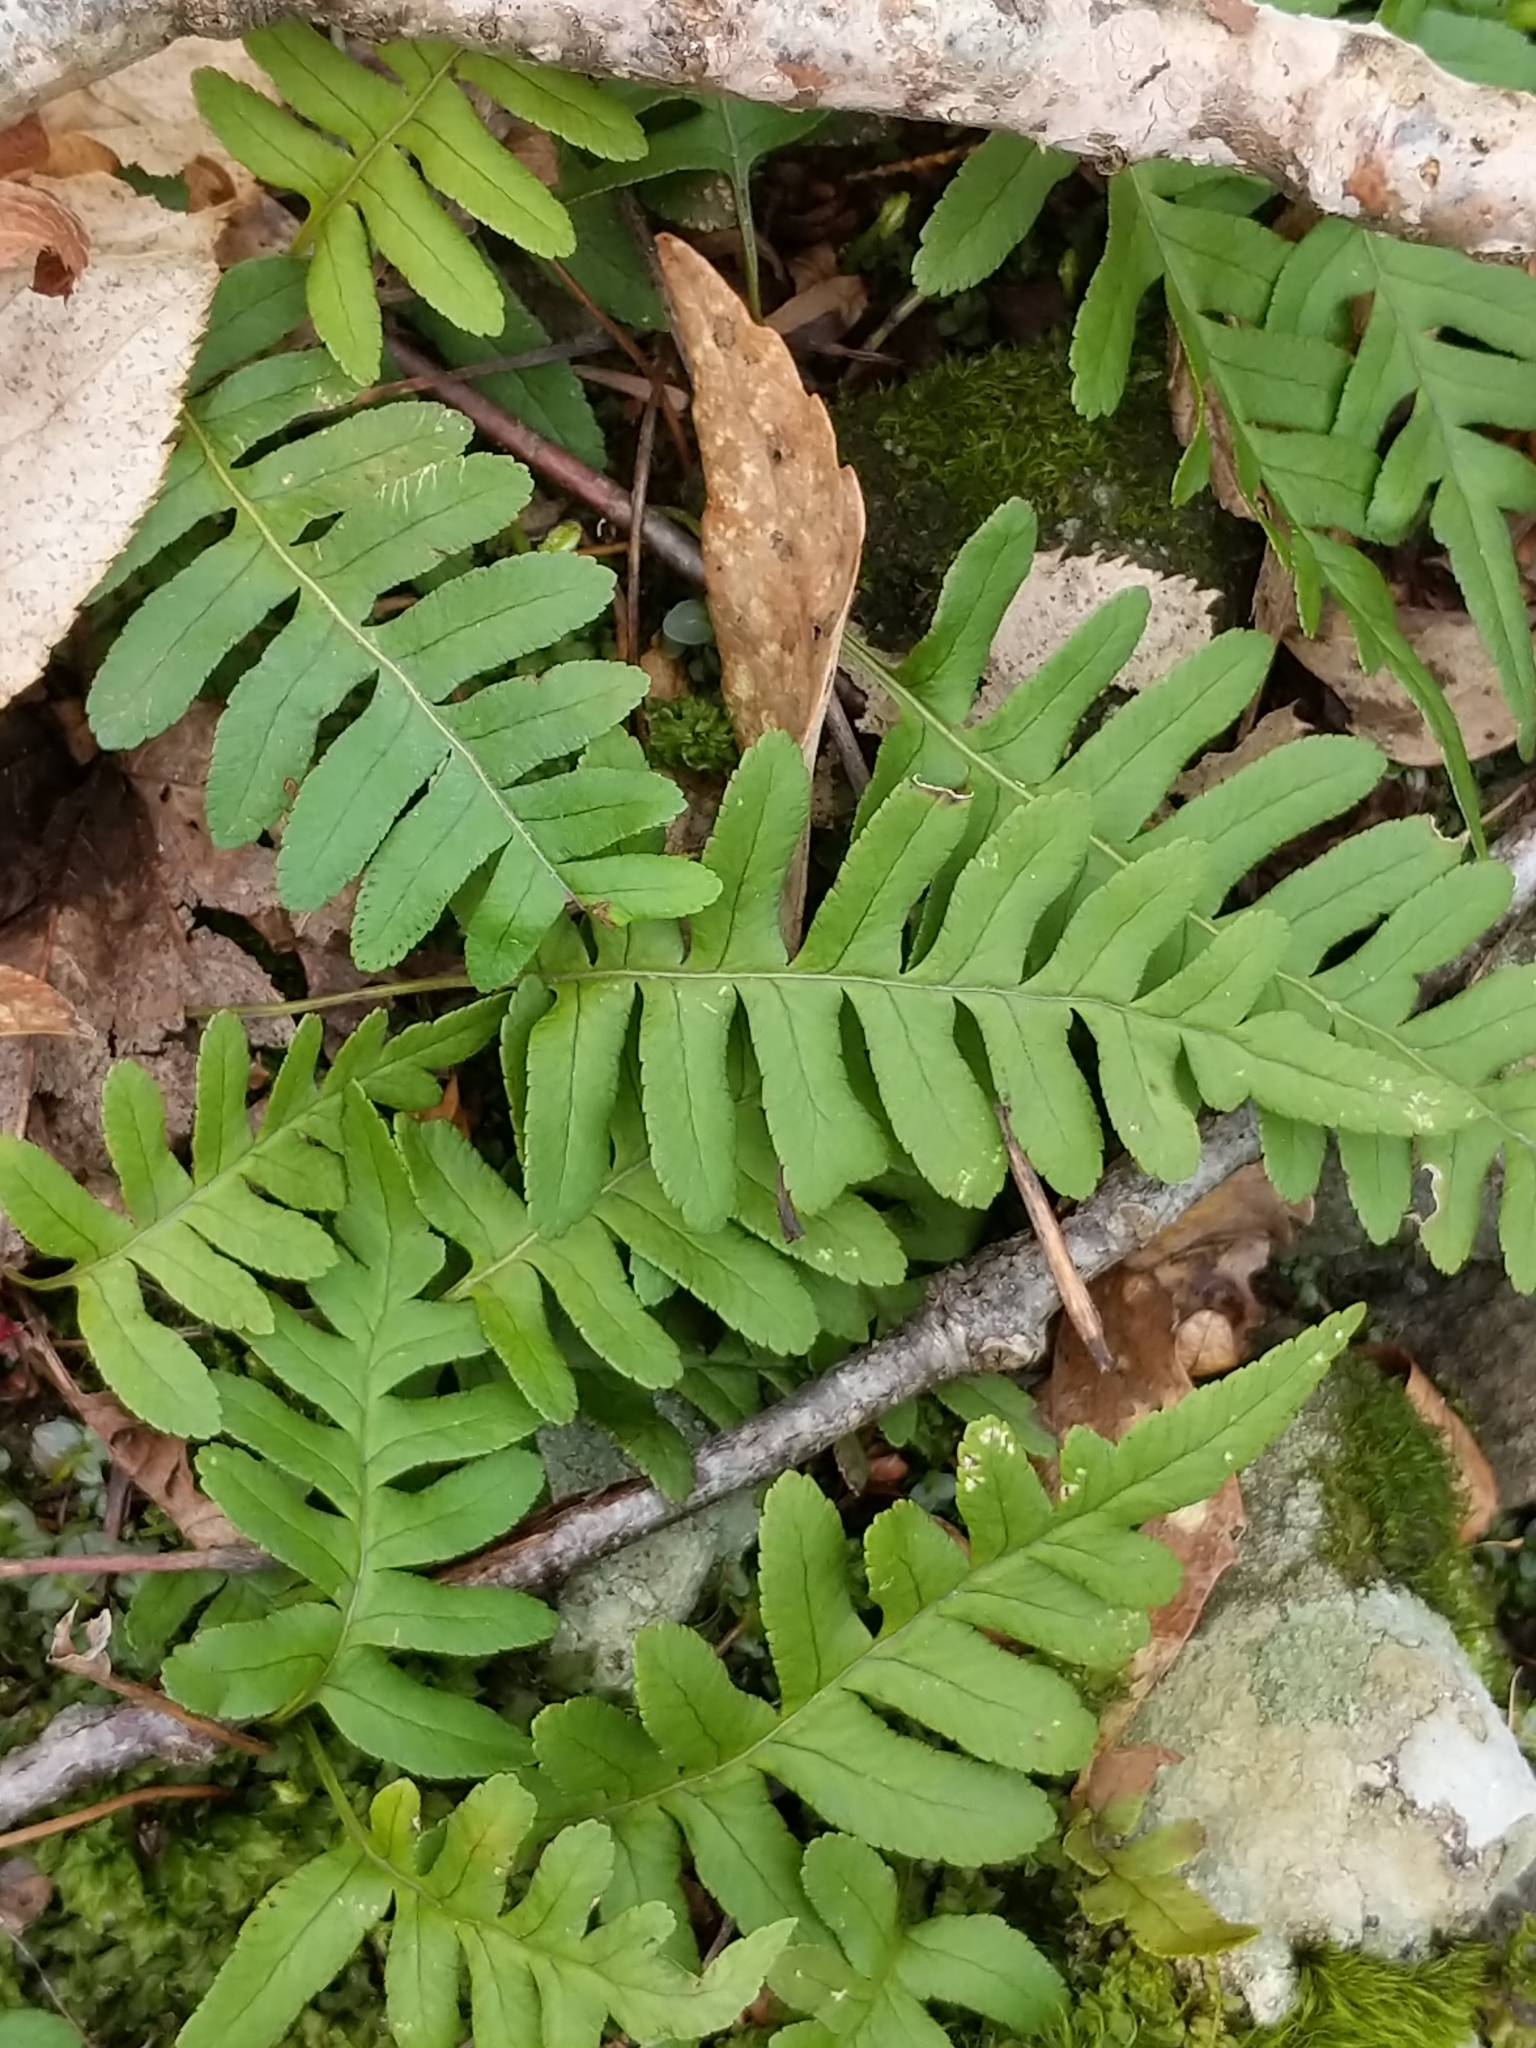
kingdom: Plantae
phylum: Tracheophyta
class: Polypodiopsida
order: Polypodiales
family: Polypodiaceae
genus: Polypodium
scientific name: Polypodium virginianum
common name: American wall fern
